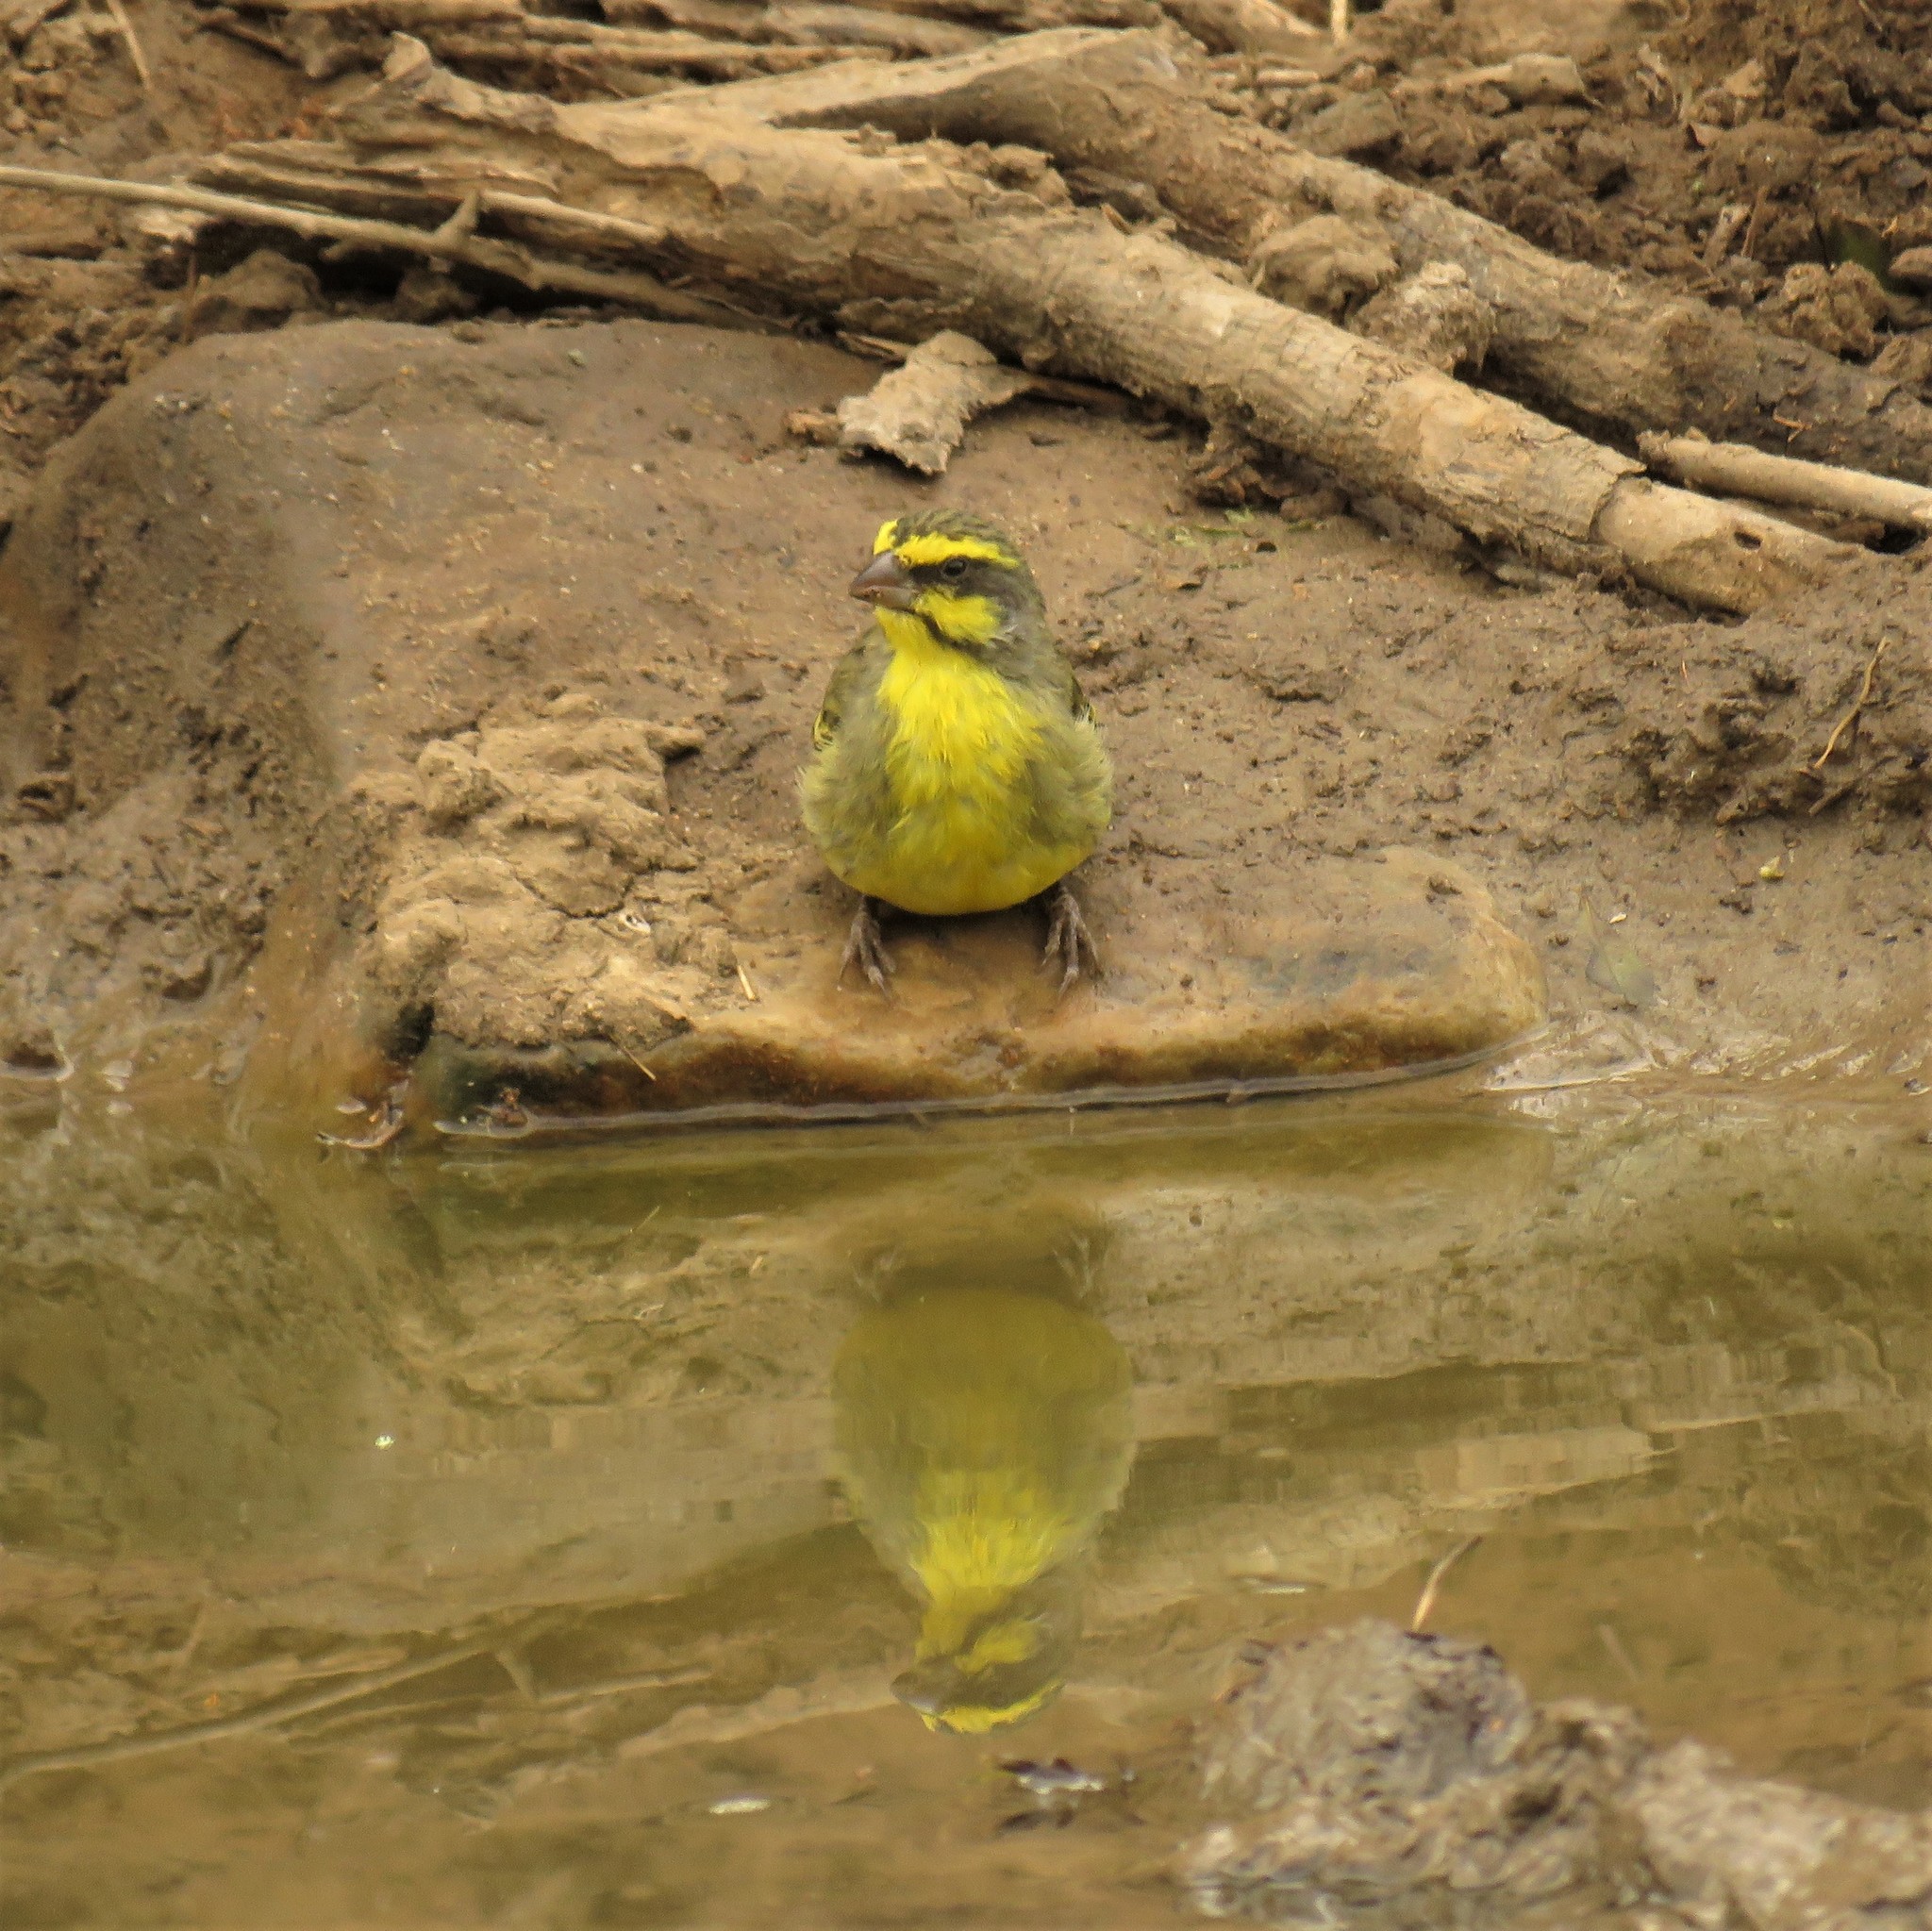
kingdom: Animalia
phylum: Chordata
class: Aves
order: Passeriformes
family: Fringillidae
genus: Crithagra
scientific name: Crithagra mozambica
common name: Yellow-fronted canary
